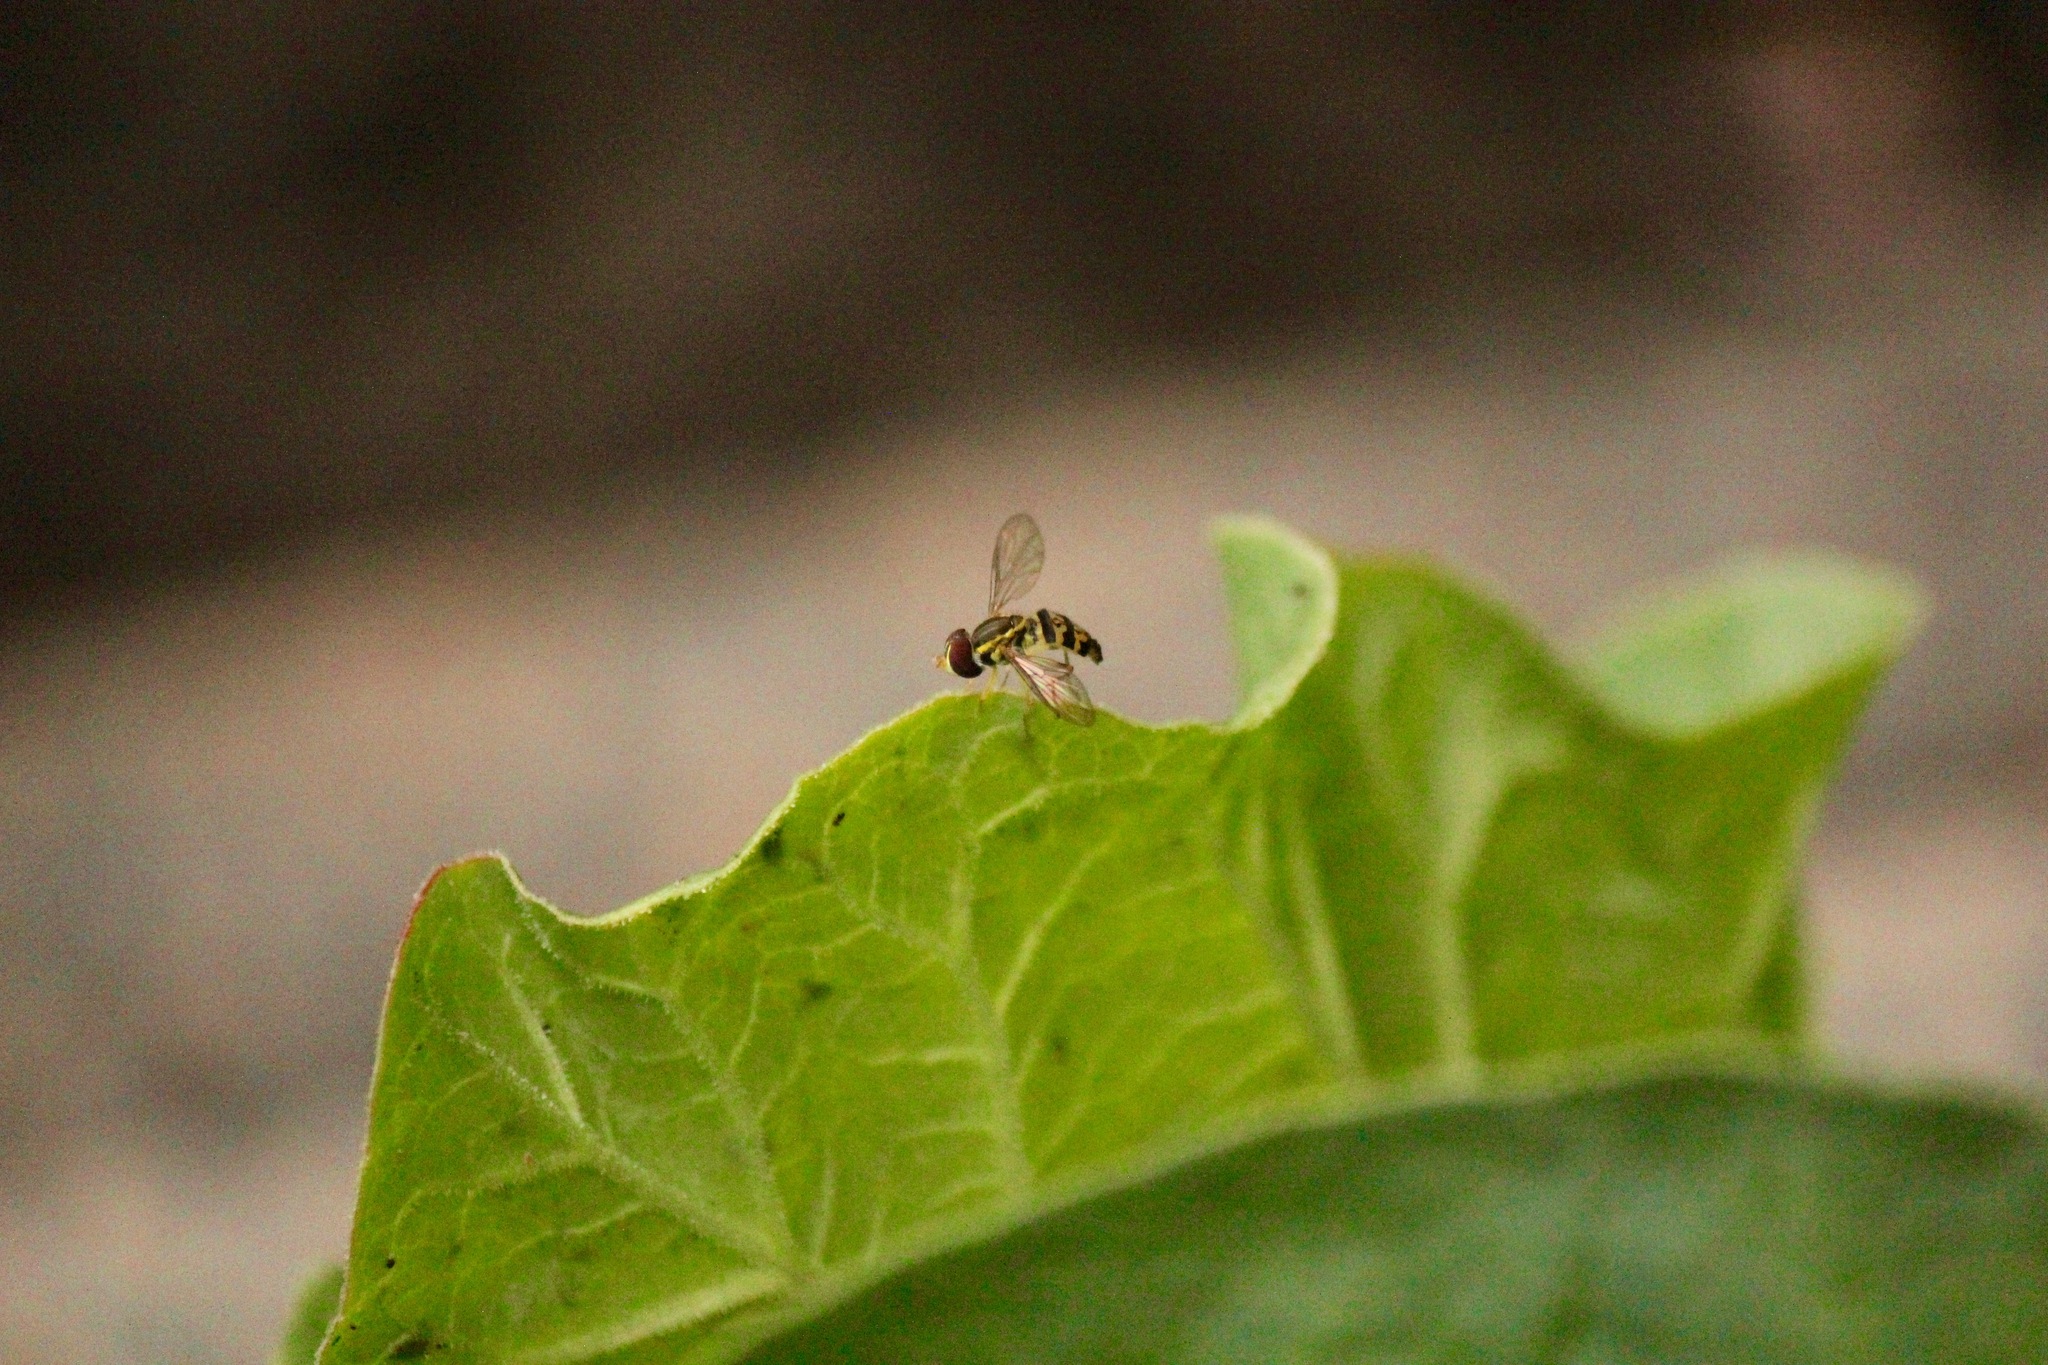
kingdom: Animalia
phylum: Arthropoda
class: Insecta
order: Diptera
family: Syrphidae
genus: Toxomerus
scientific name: Toxomerus geminatus
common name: Eastern calligrapher
